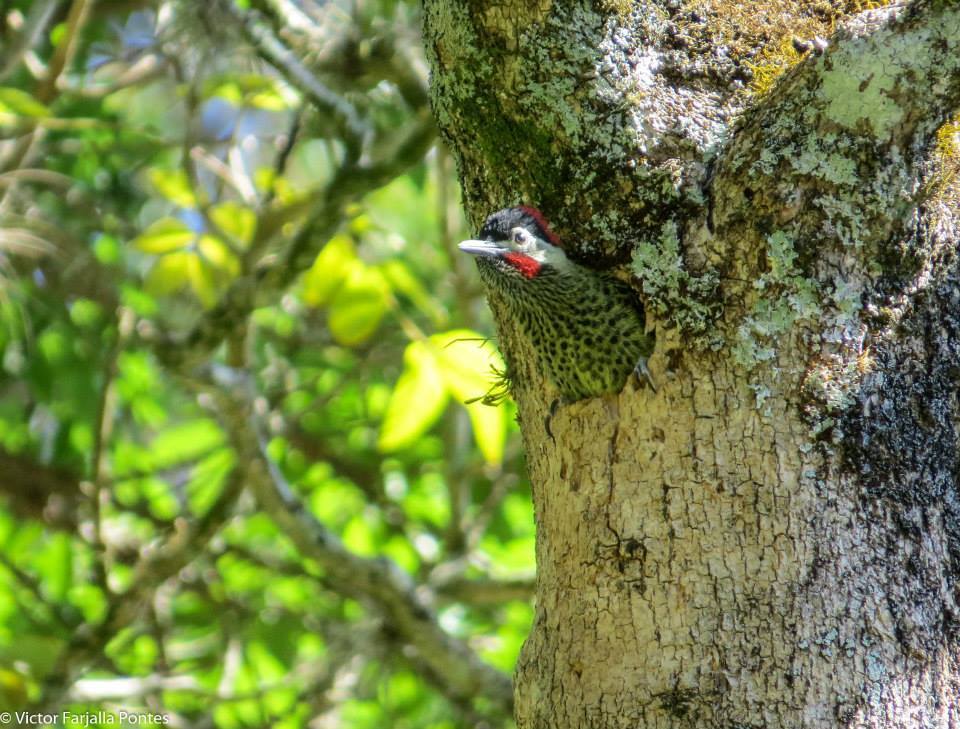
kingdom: Animalia
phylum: Chordata
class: Aves
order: Piciformes
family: Picidae
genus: Colaptes
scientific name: Colaptes melanochloros
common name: Green-barred woodpecker
